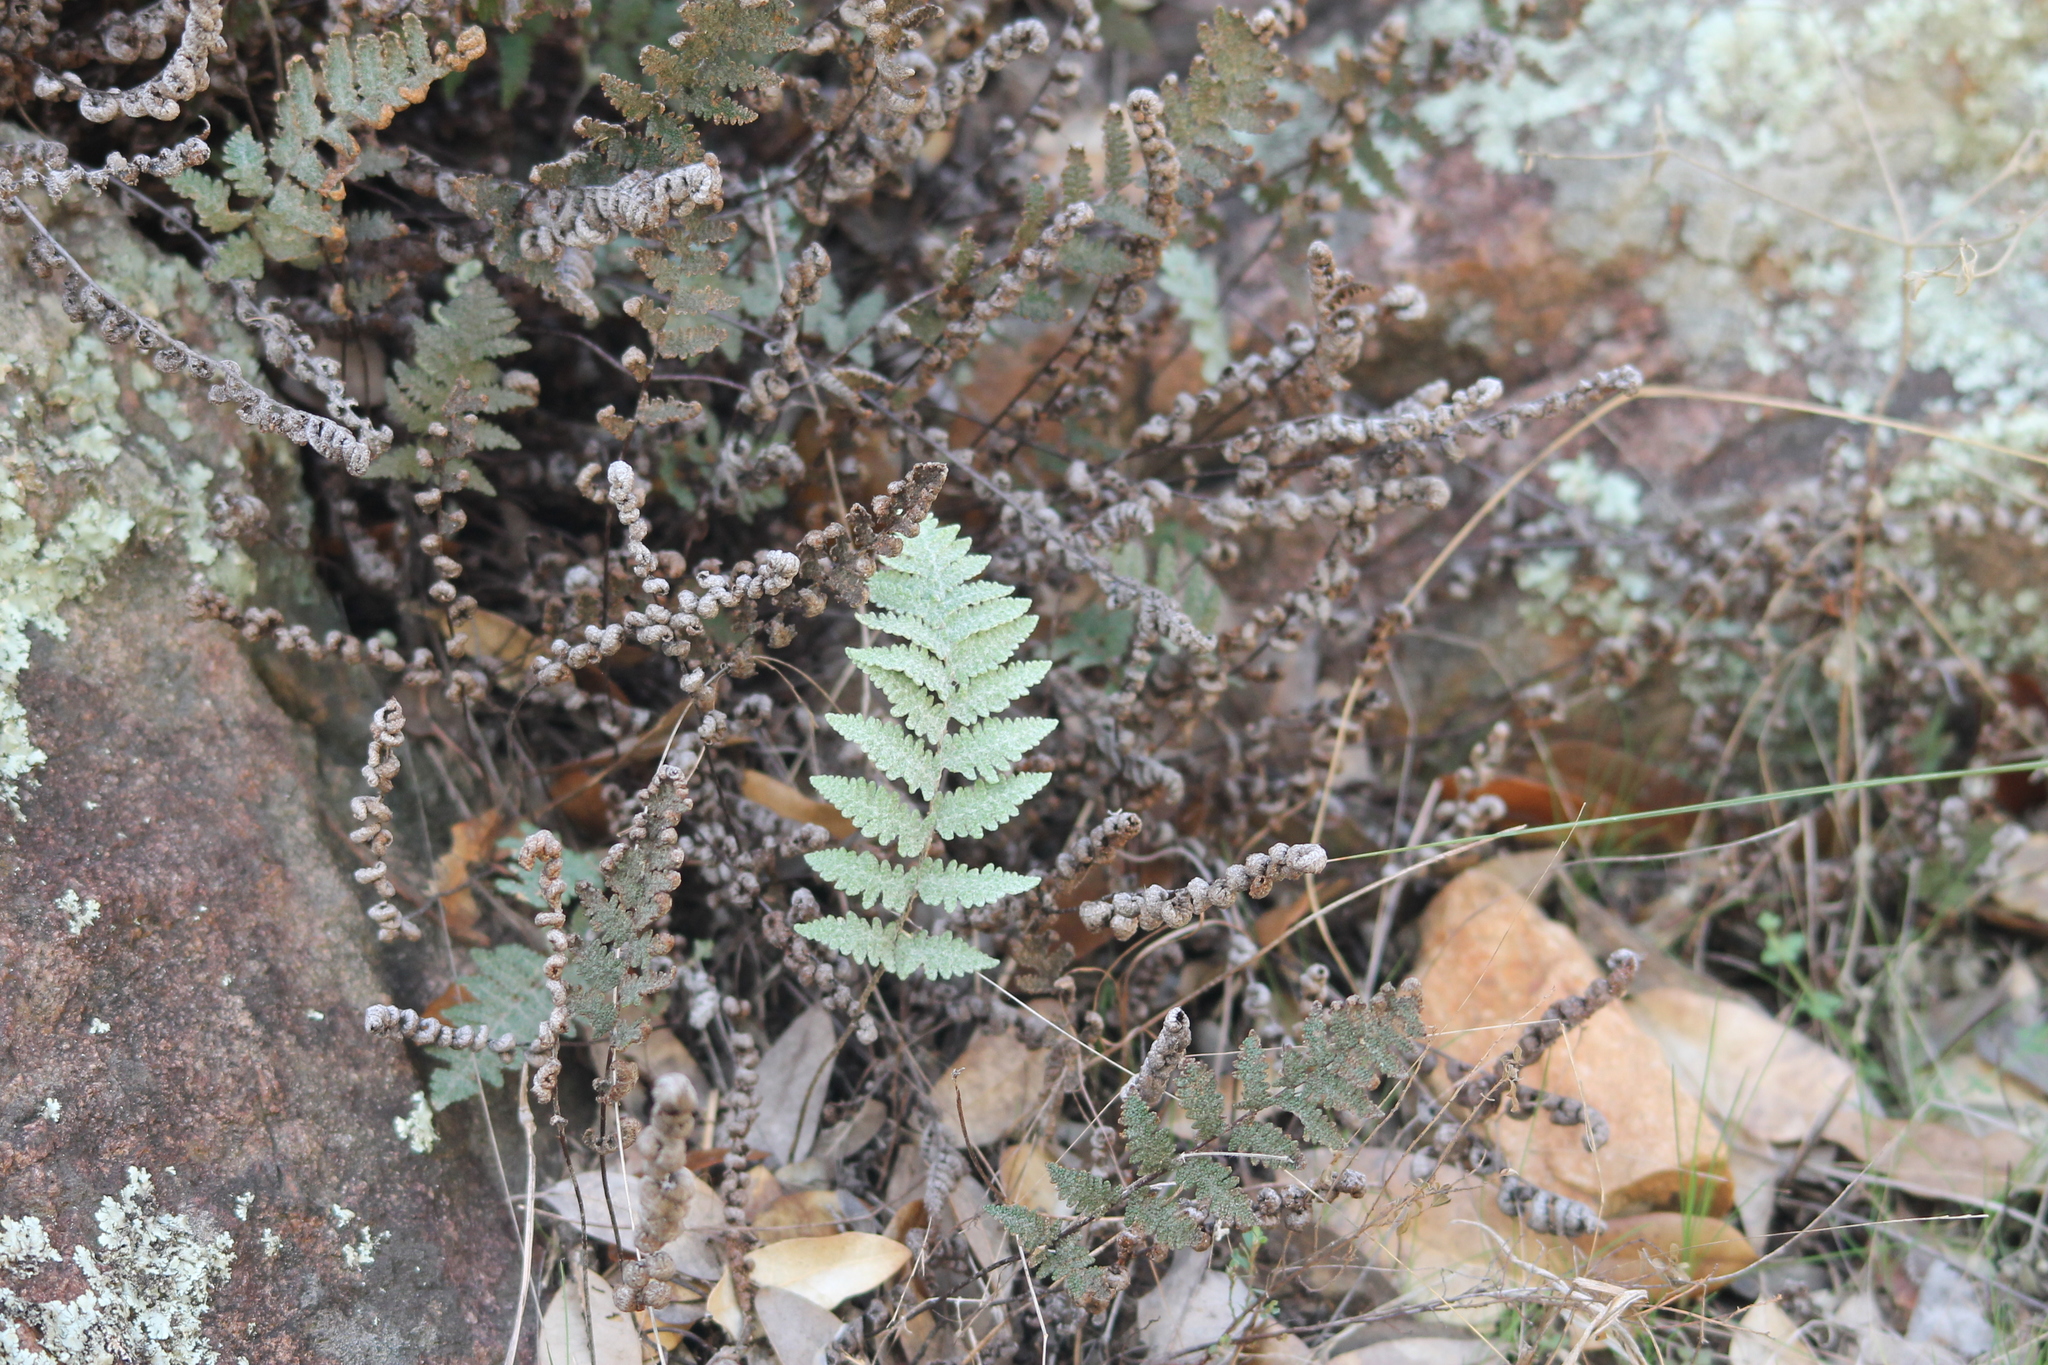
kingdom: Plantae
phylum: Tracheophyta
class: Polypodiopsida
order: Polypodiales
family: Pteridaceae
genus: Myriopteris
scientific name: Myriopteris lindheimeri
